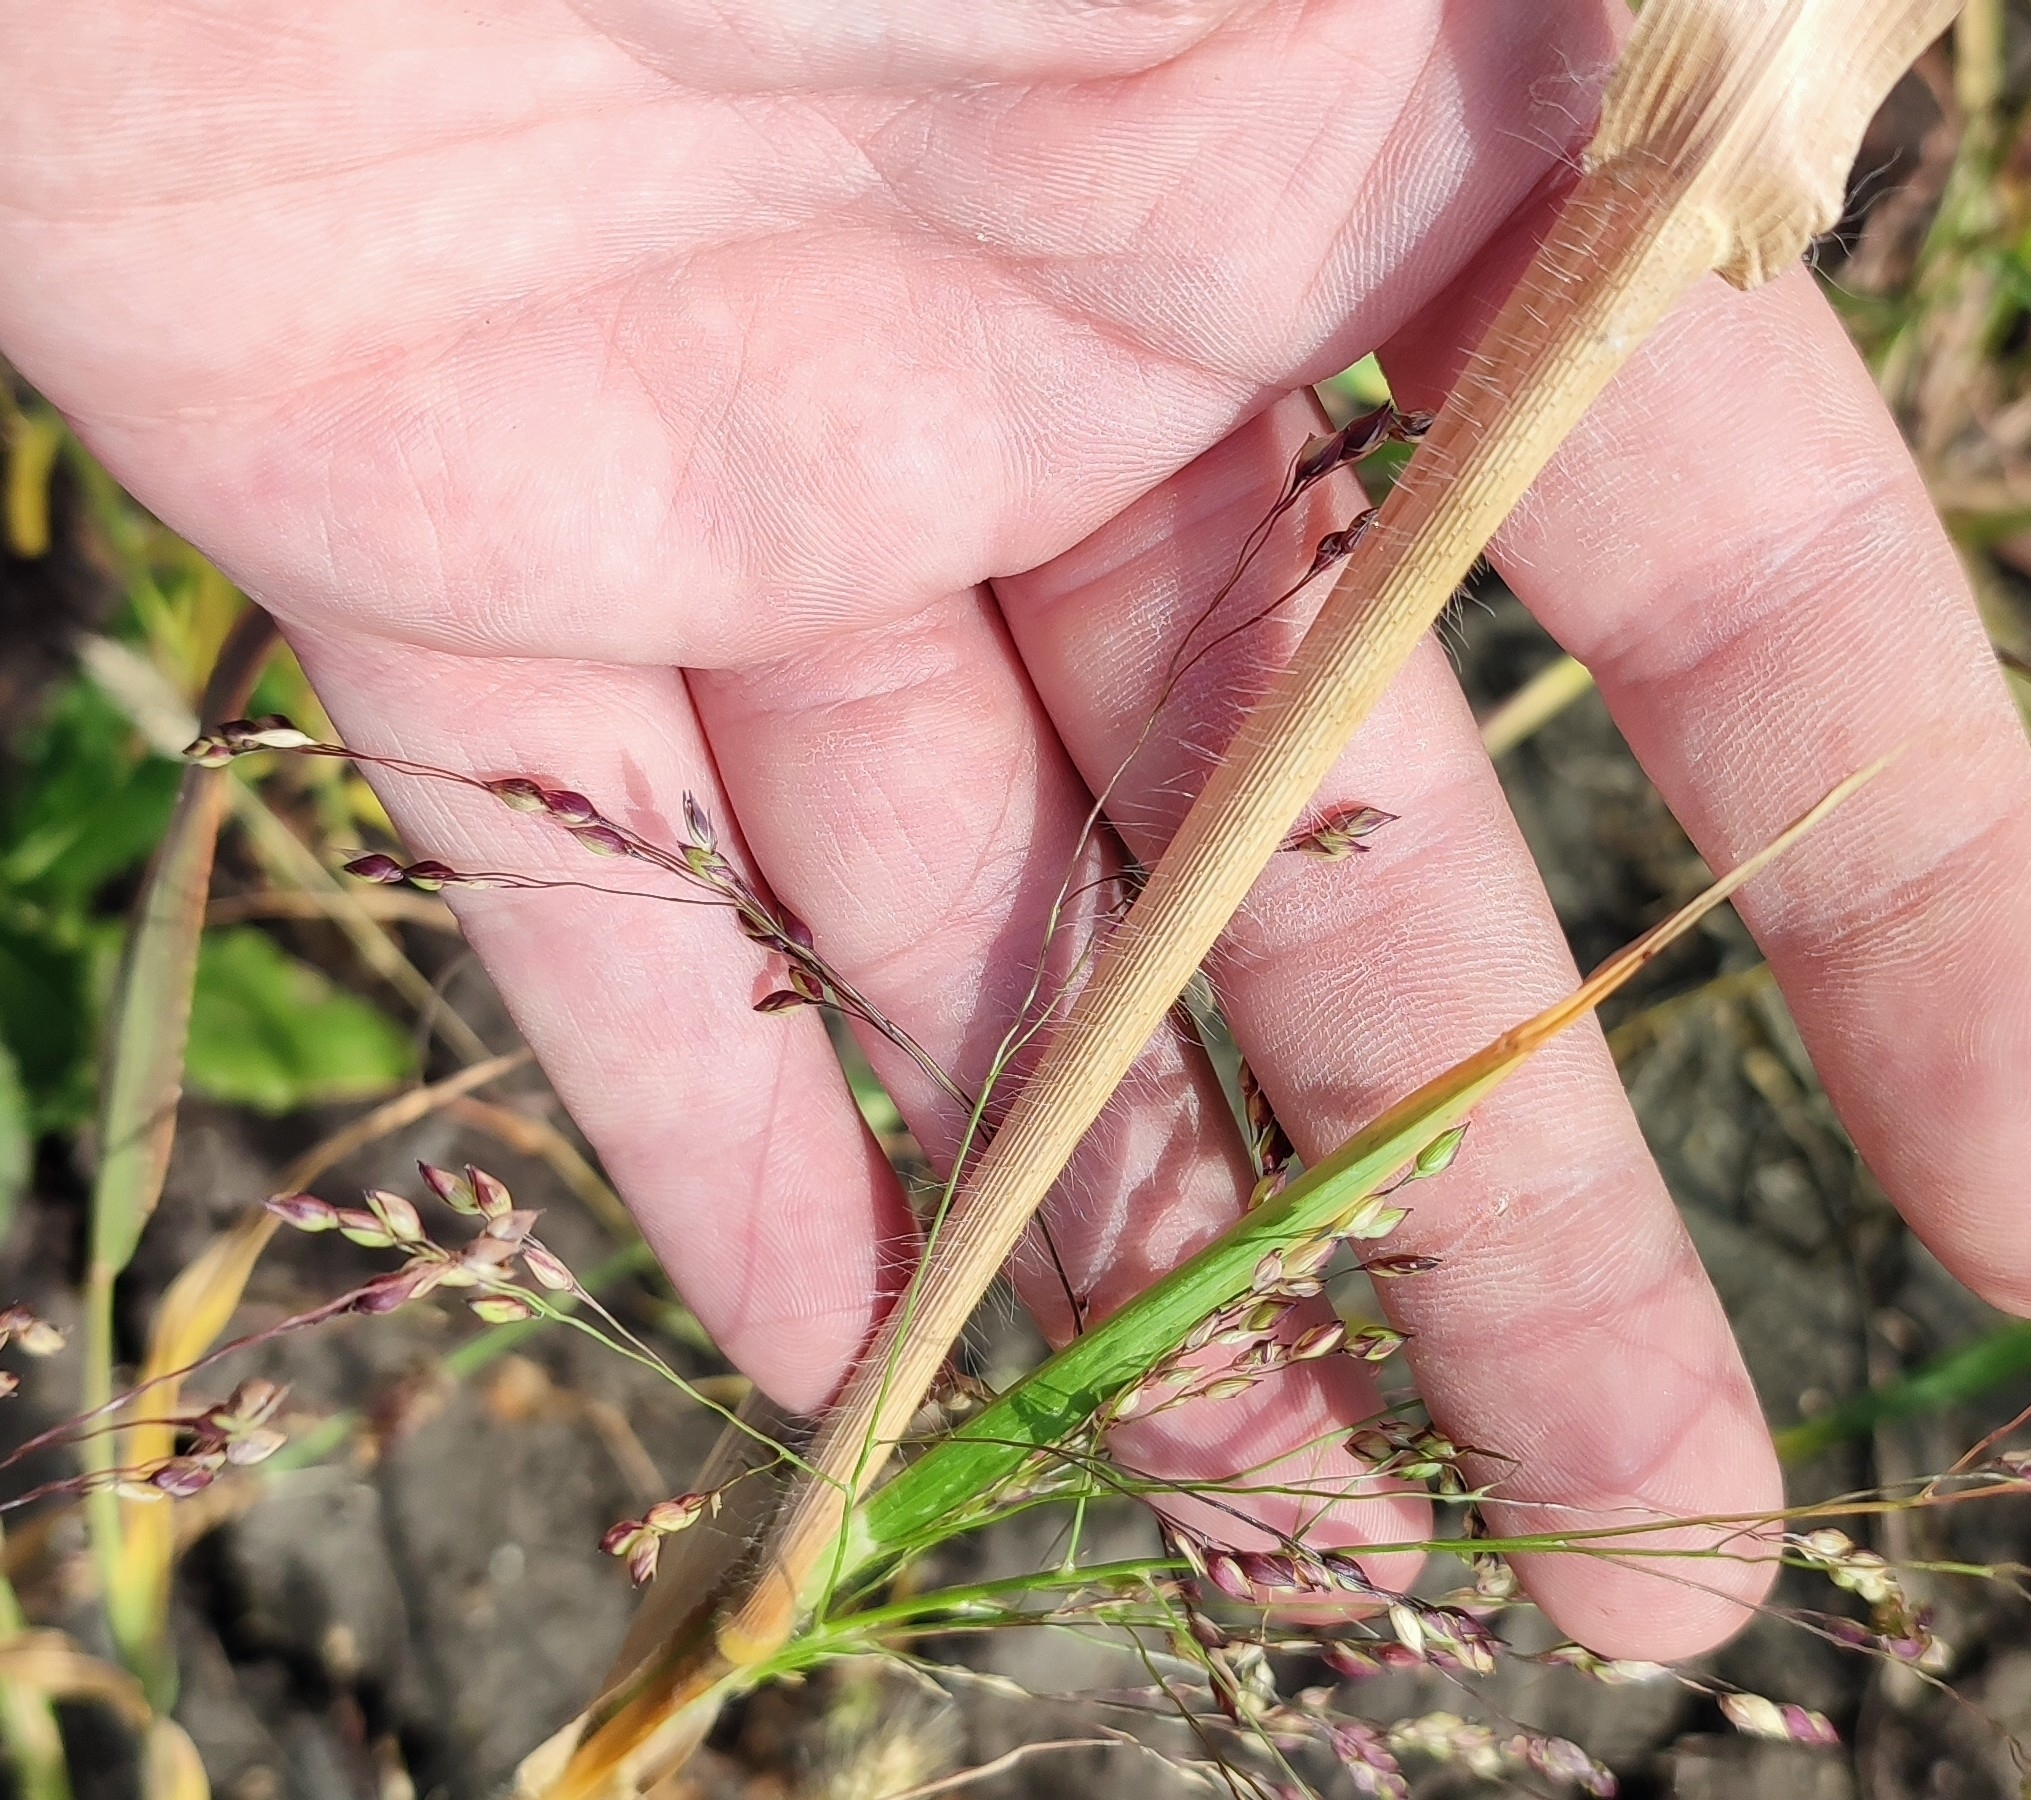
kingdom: Plantae
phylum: Tracheophyta
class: Liliopsida
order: Poales
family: Poaceae
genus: Panicum
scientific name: Panicum miliaceum
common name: Common millet
